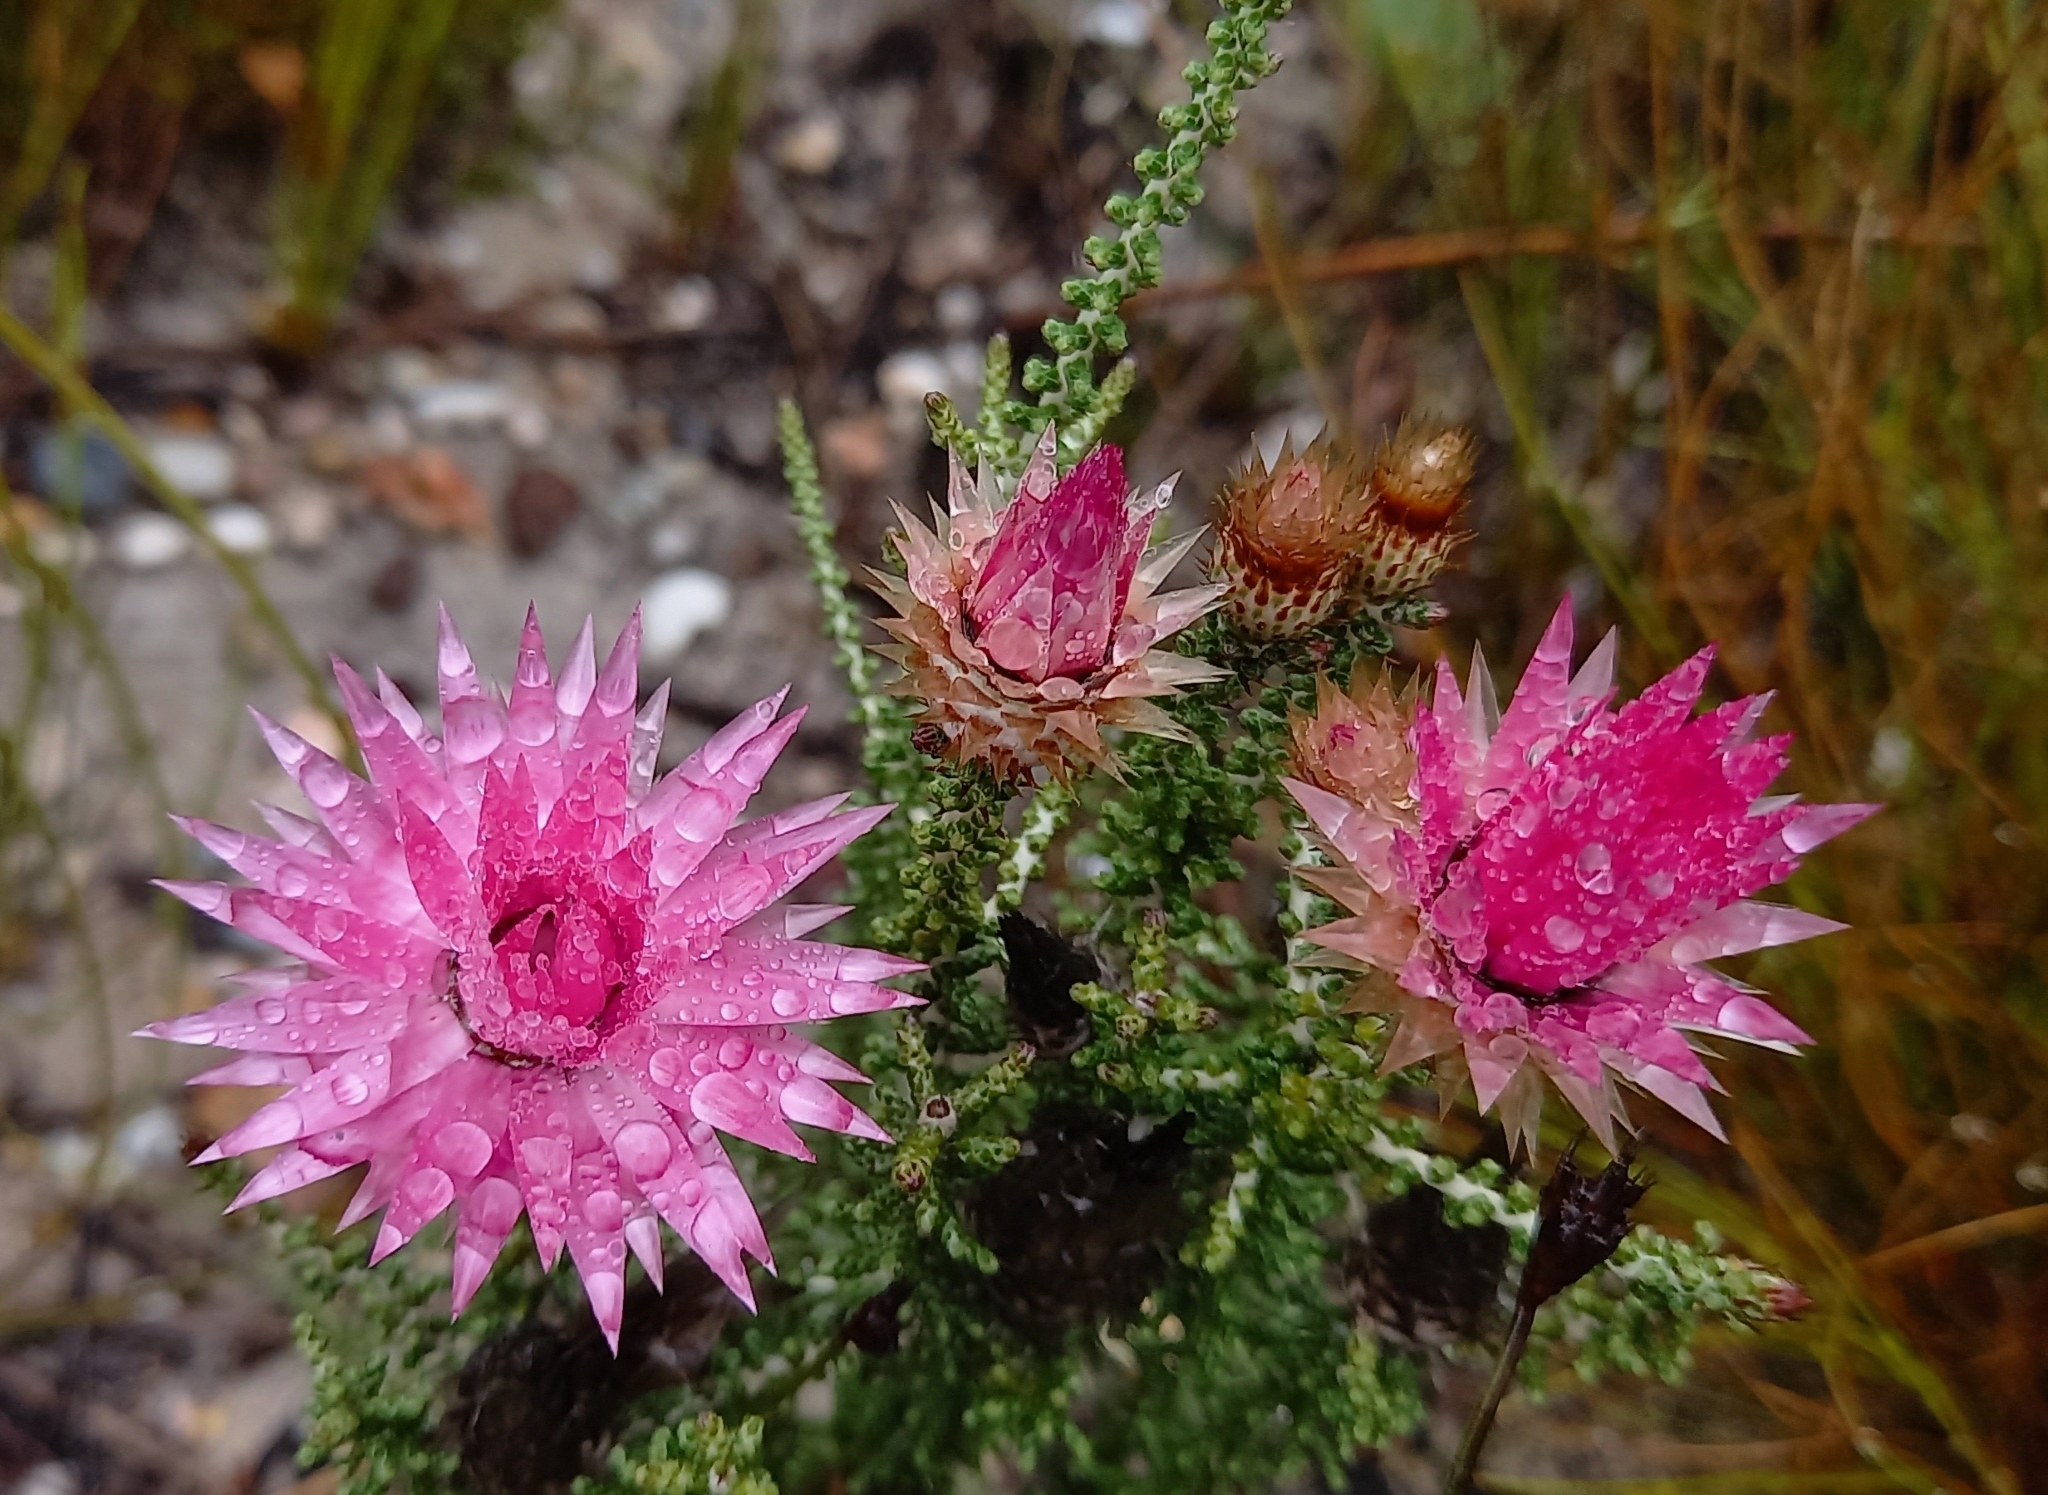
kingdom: Plantae
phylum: Tracheophyta
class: Magnoliopsida
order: Asterales
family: Asteraceae
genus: Phaenocoma
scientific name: Phaenocoma prolifera
